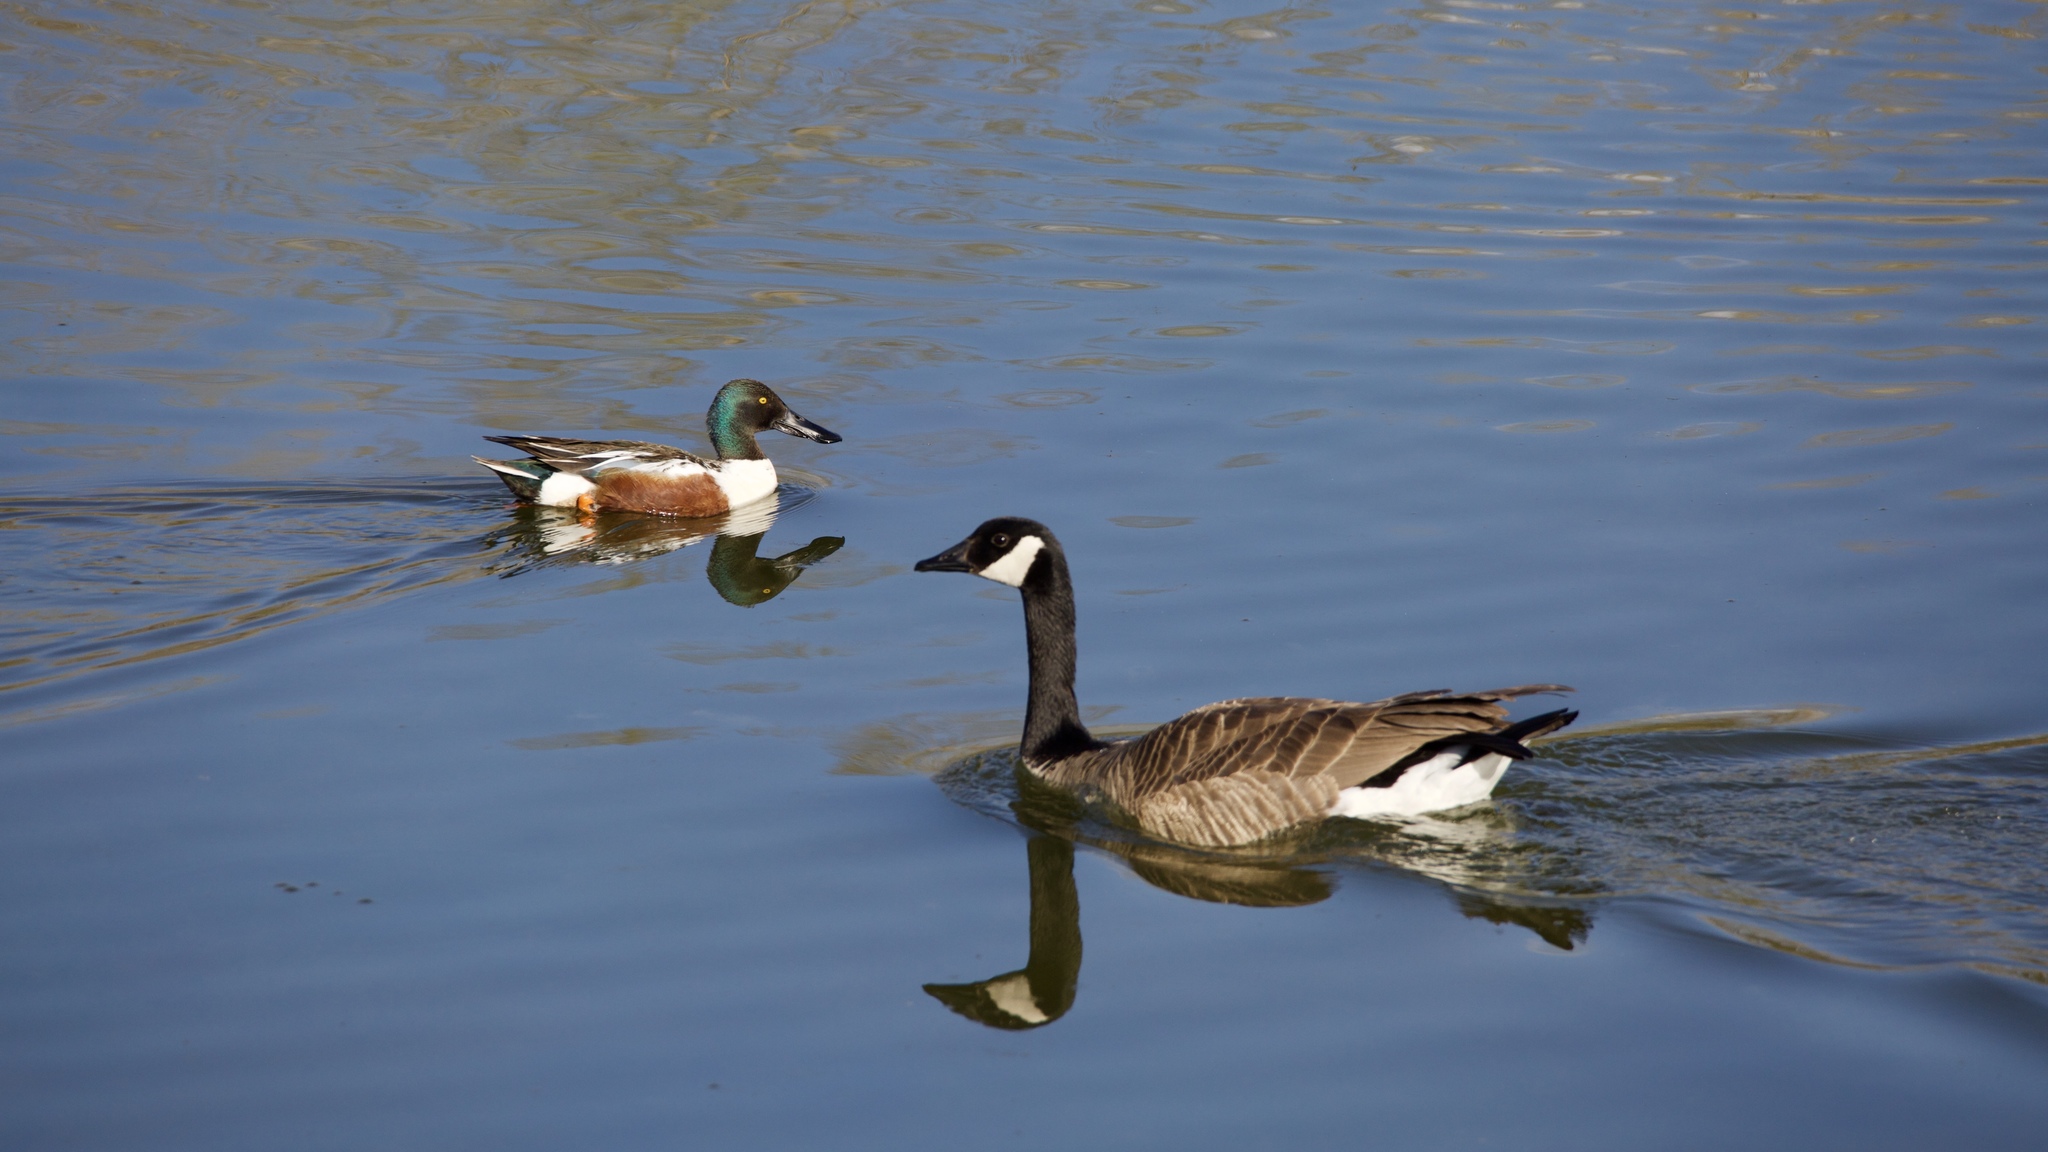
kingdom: Animalia
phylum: Chordata
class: Aves
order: Anseriformes
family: Anatidae
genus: Spatula
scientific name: Spatula clypeata
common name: Northern shoveler
